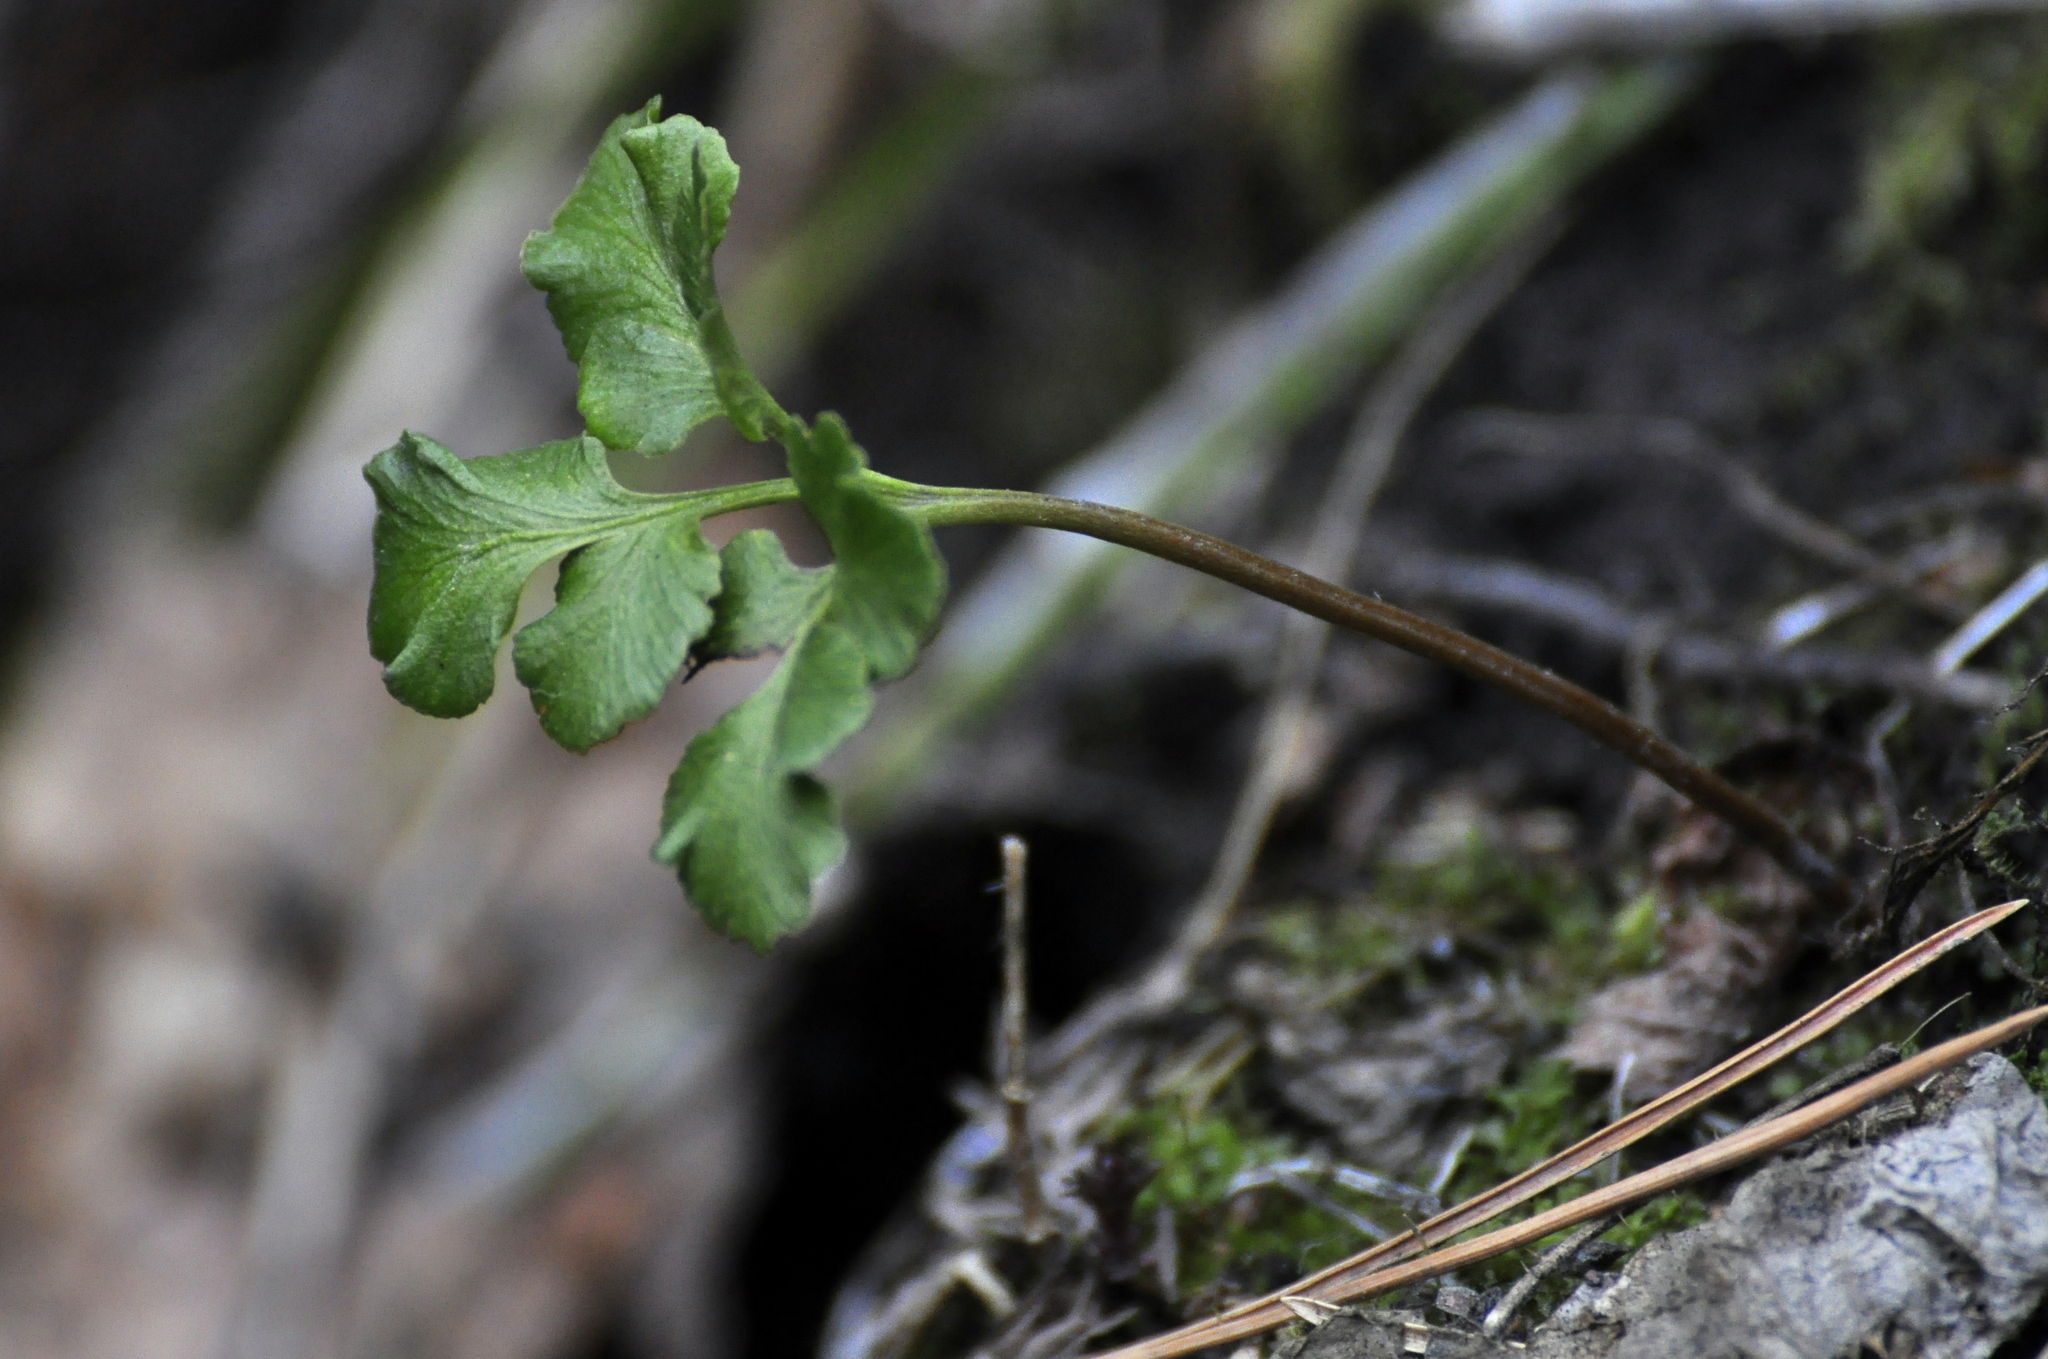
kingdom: Plantae
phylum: Tracheophyta
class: Polypodiopsida
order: Ophioglossales
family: Ophioglossaceae
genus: Sceptridium
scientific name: Sceptridium multifidum
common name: Leathery grape fern
